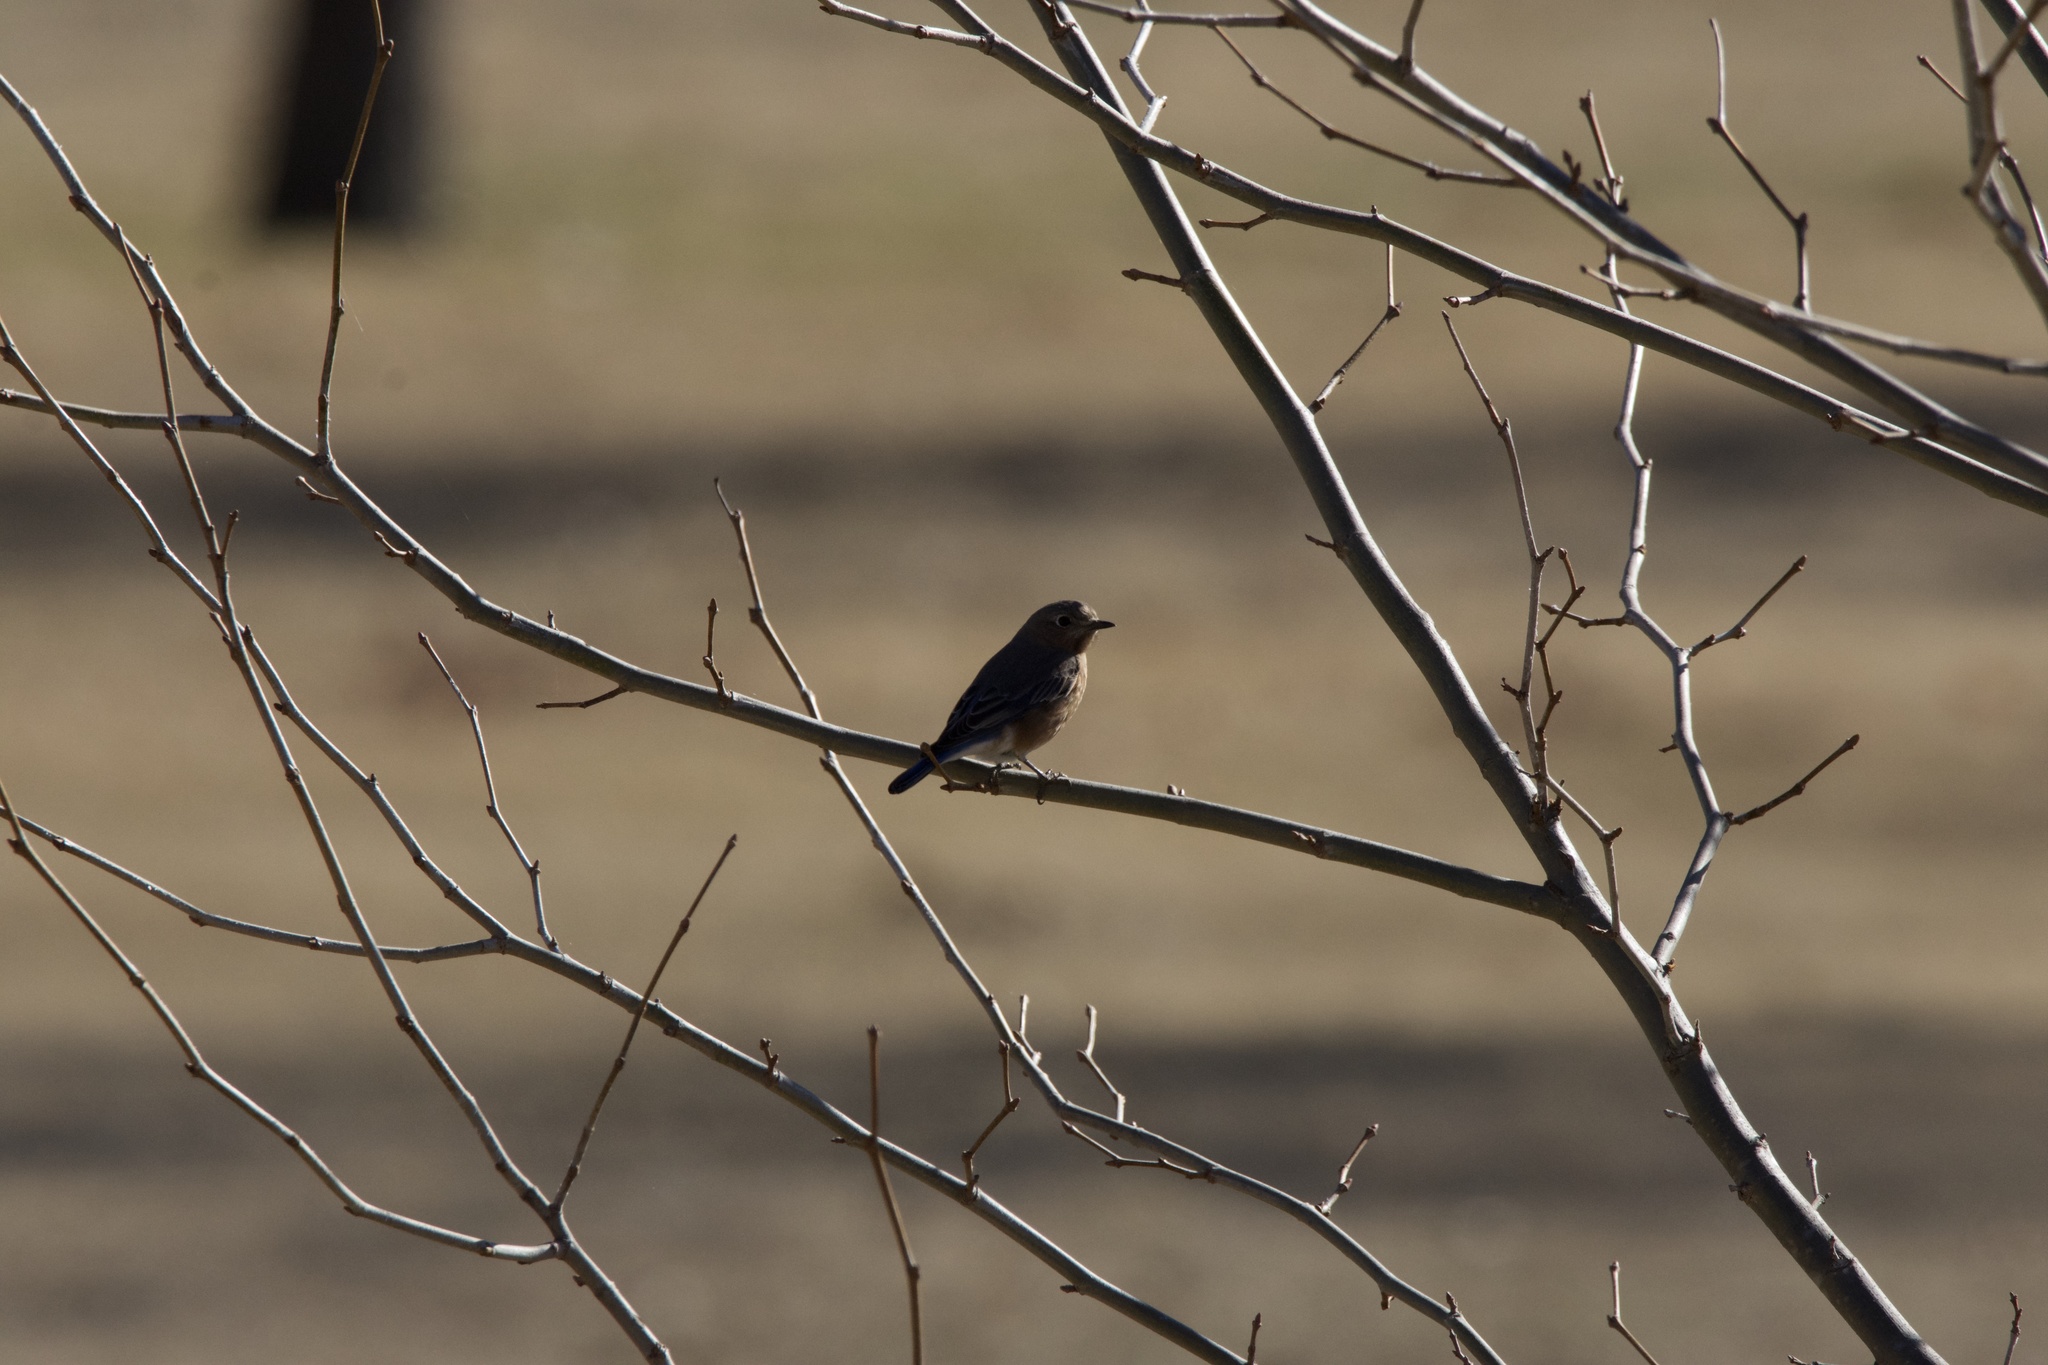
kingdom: Animalia
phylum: Chordata
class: Aves
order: Passeriformes
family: Turdidae
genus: Sialia
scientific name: Sialia sialis
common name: Eastern bluebird
